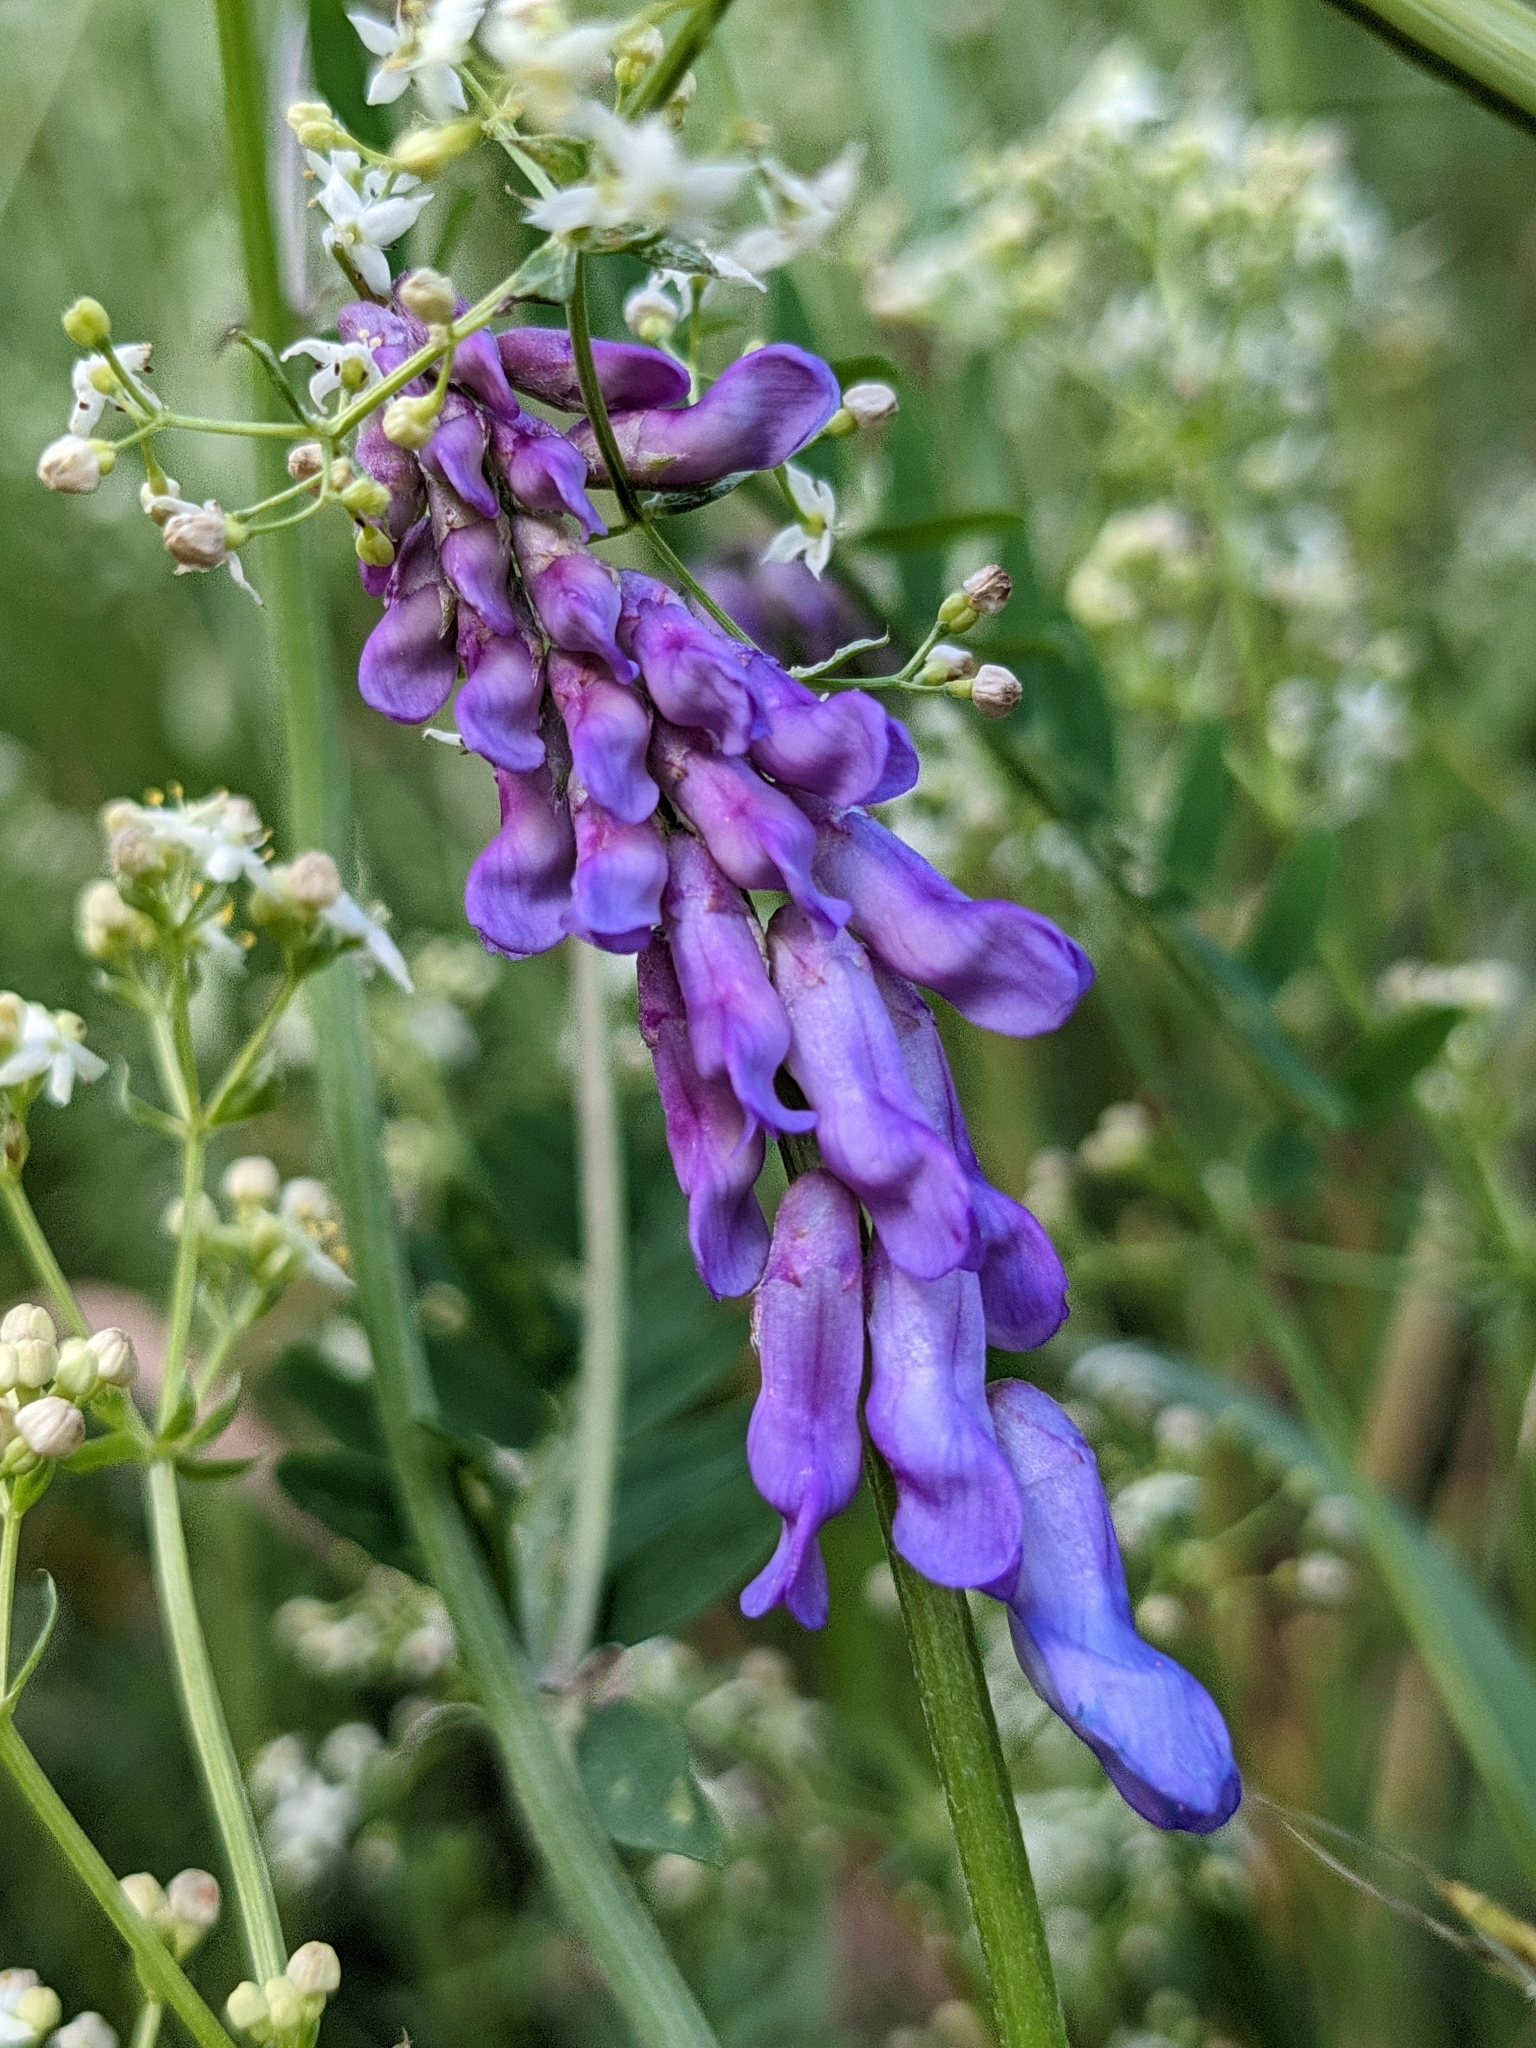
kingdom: Plantae
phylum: Tracheophyta
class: Magnoliopsida
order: Fabales
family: Fabaceae
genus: Vicia
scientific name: Vicia cracca
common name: Bird vetch
